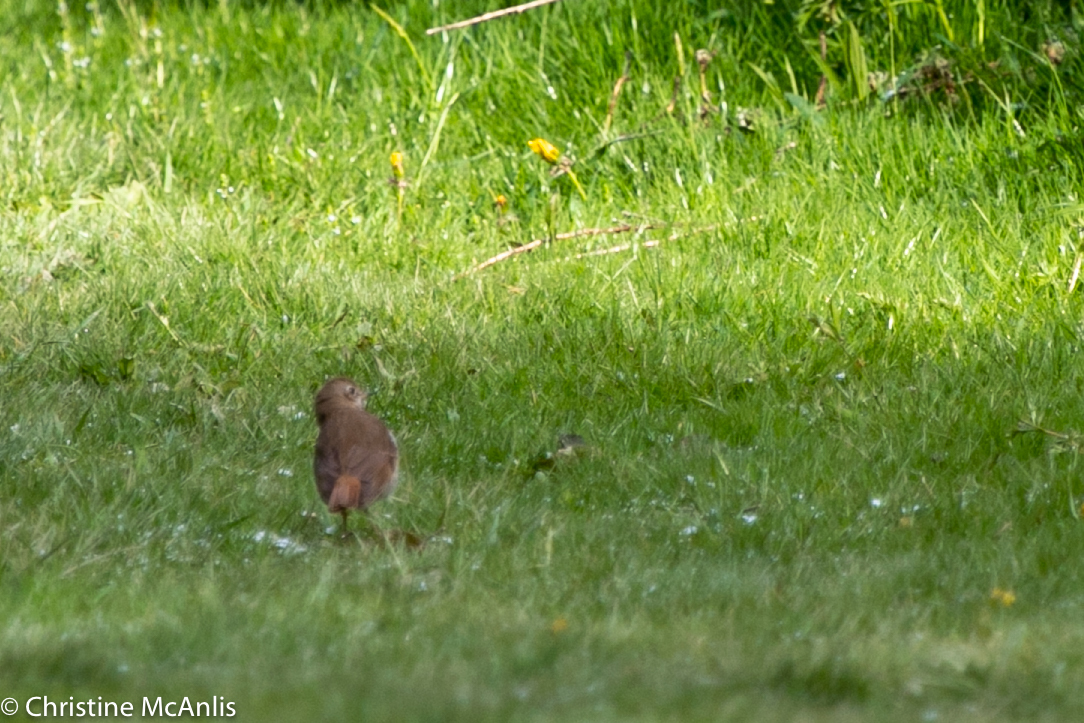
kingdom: Animalia
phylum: Chordata
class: Aves
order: Passeriformes
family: Turdidae
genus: Catharus
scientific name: Catharus guttatus
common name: Hermit thrush
